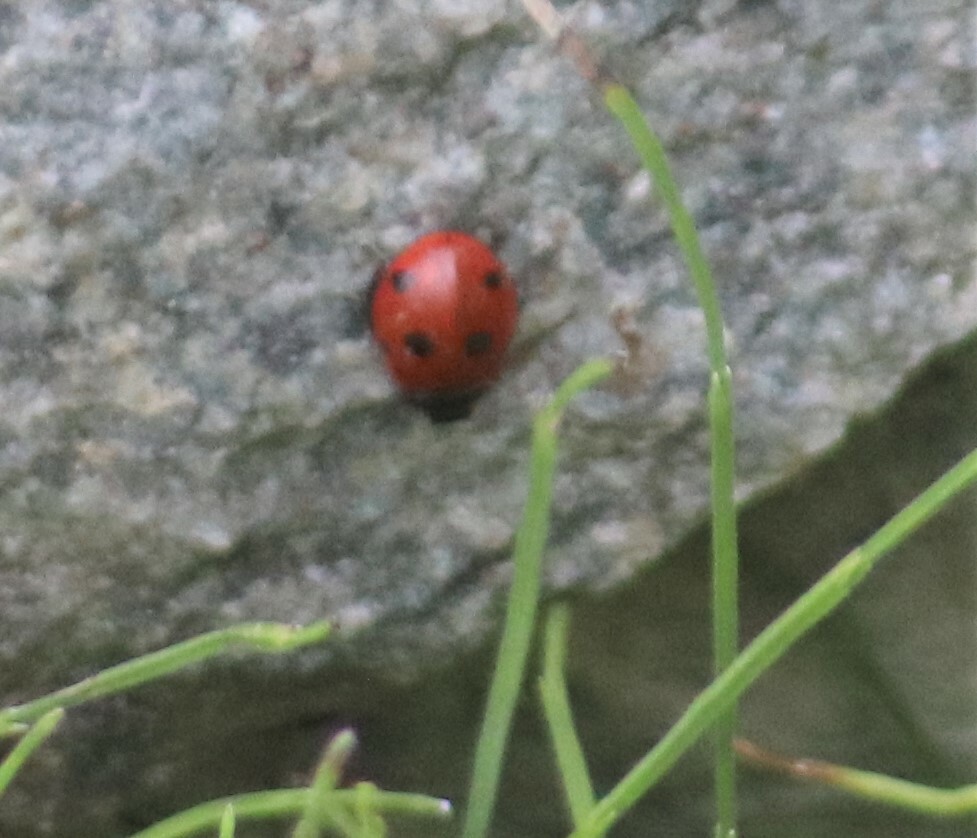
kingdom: Animalia
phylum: Arthropoda
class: Insecta
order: Coleoptera
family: Coccinellidae
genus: Coccinella
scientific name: Coccinella septempunctata
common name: Sevenspotted lady beetle
